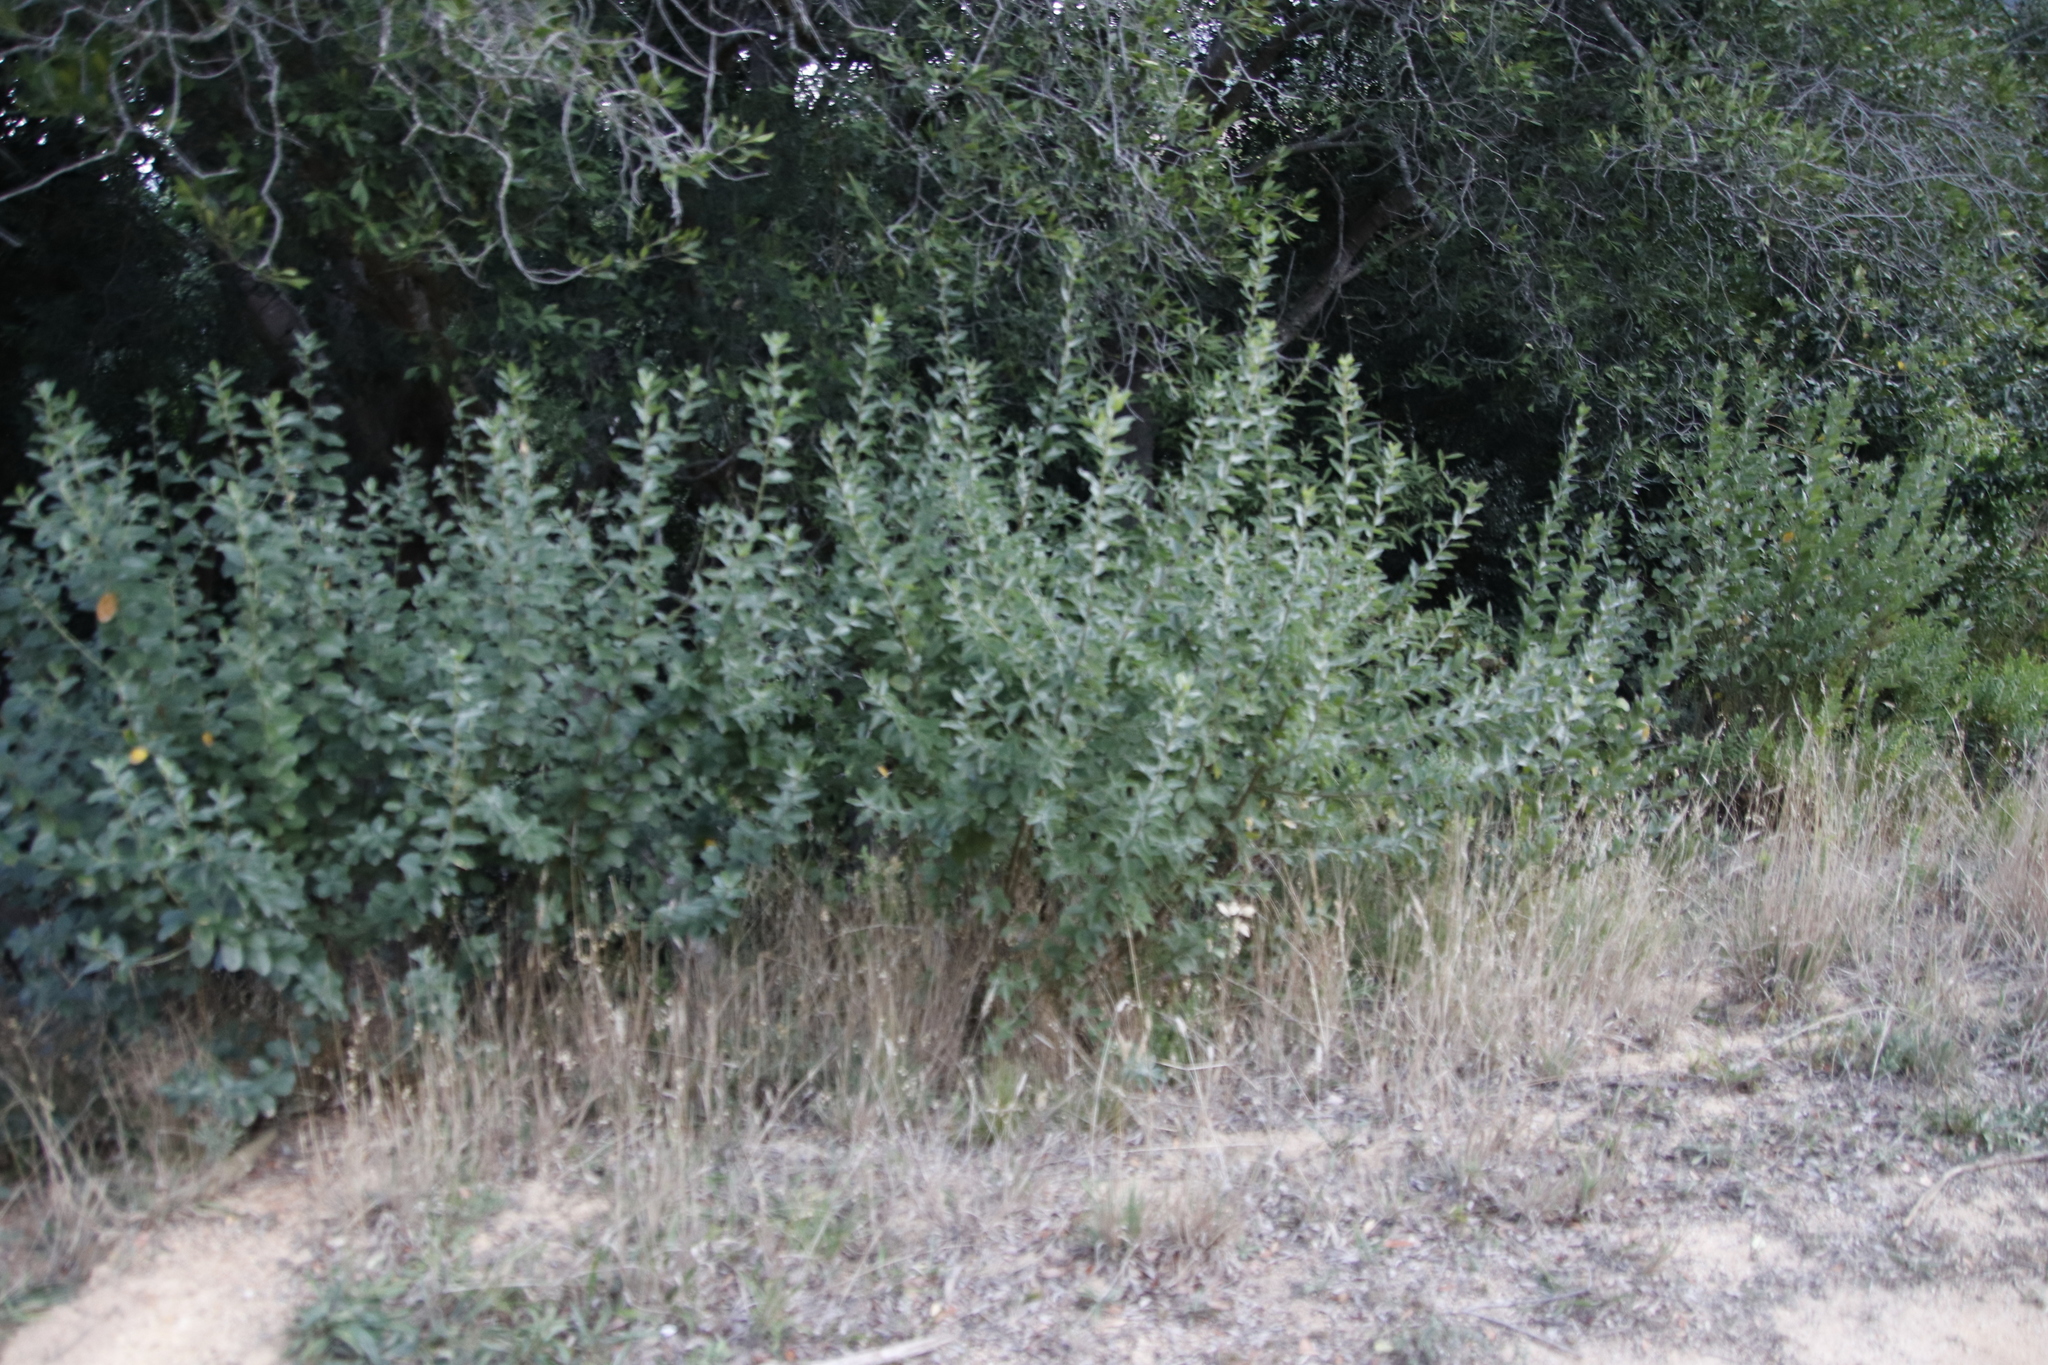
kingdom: Plantae
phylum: Tracheophyta
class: Magnoliopsida
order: Fabales
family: Fabaceae
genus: Podalyria
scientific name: Podalyria calyptrata
